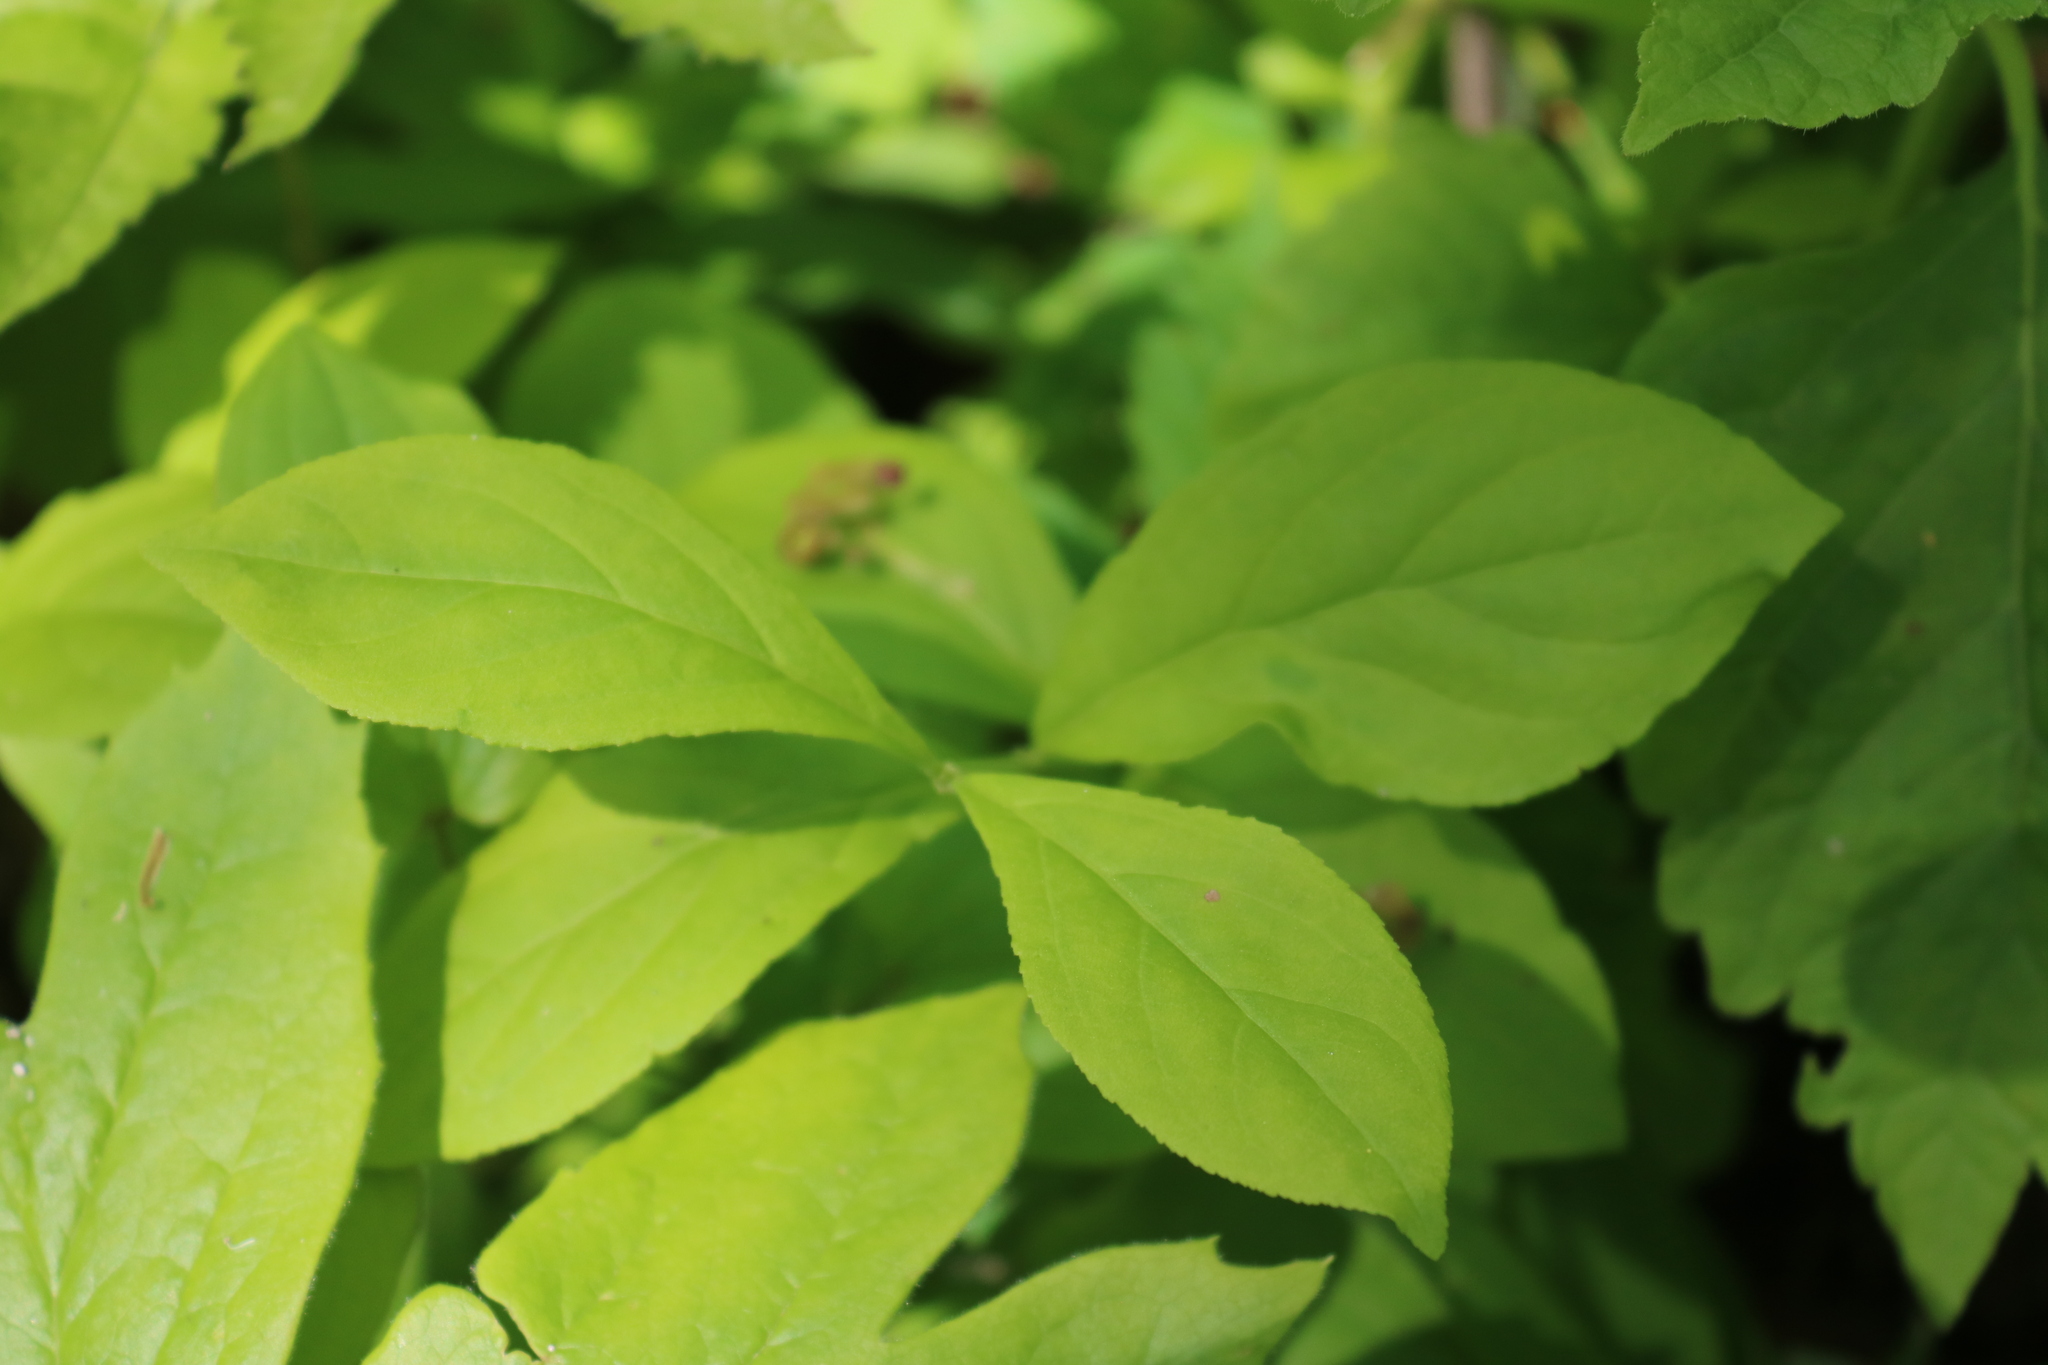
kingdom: Plantae
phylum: Tracheophyta
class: Magnoliopsida
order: Celastrales
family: Celastraceae
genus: Euonymus
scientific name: Euonymus obovatus
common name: Running strawberry-bush
